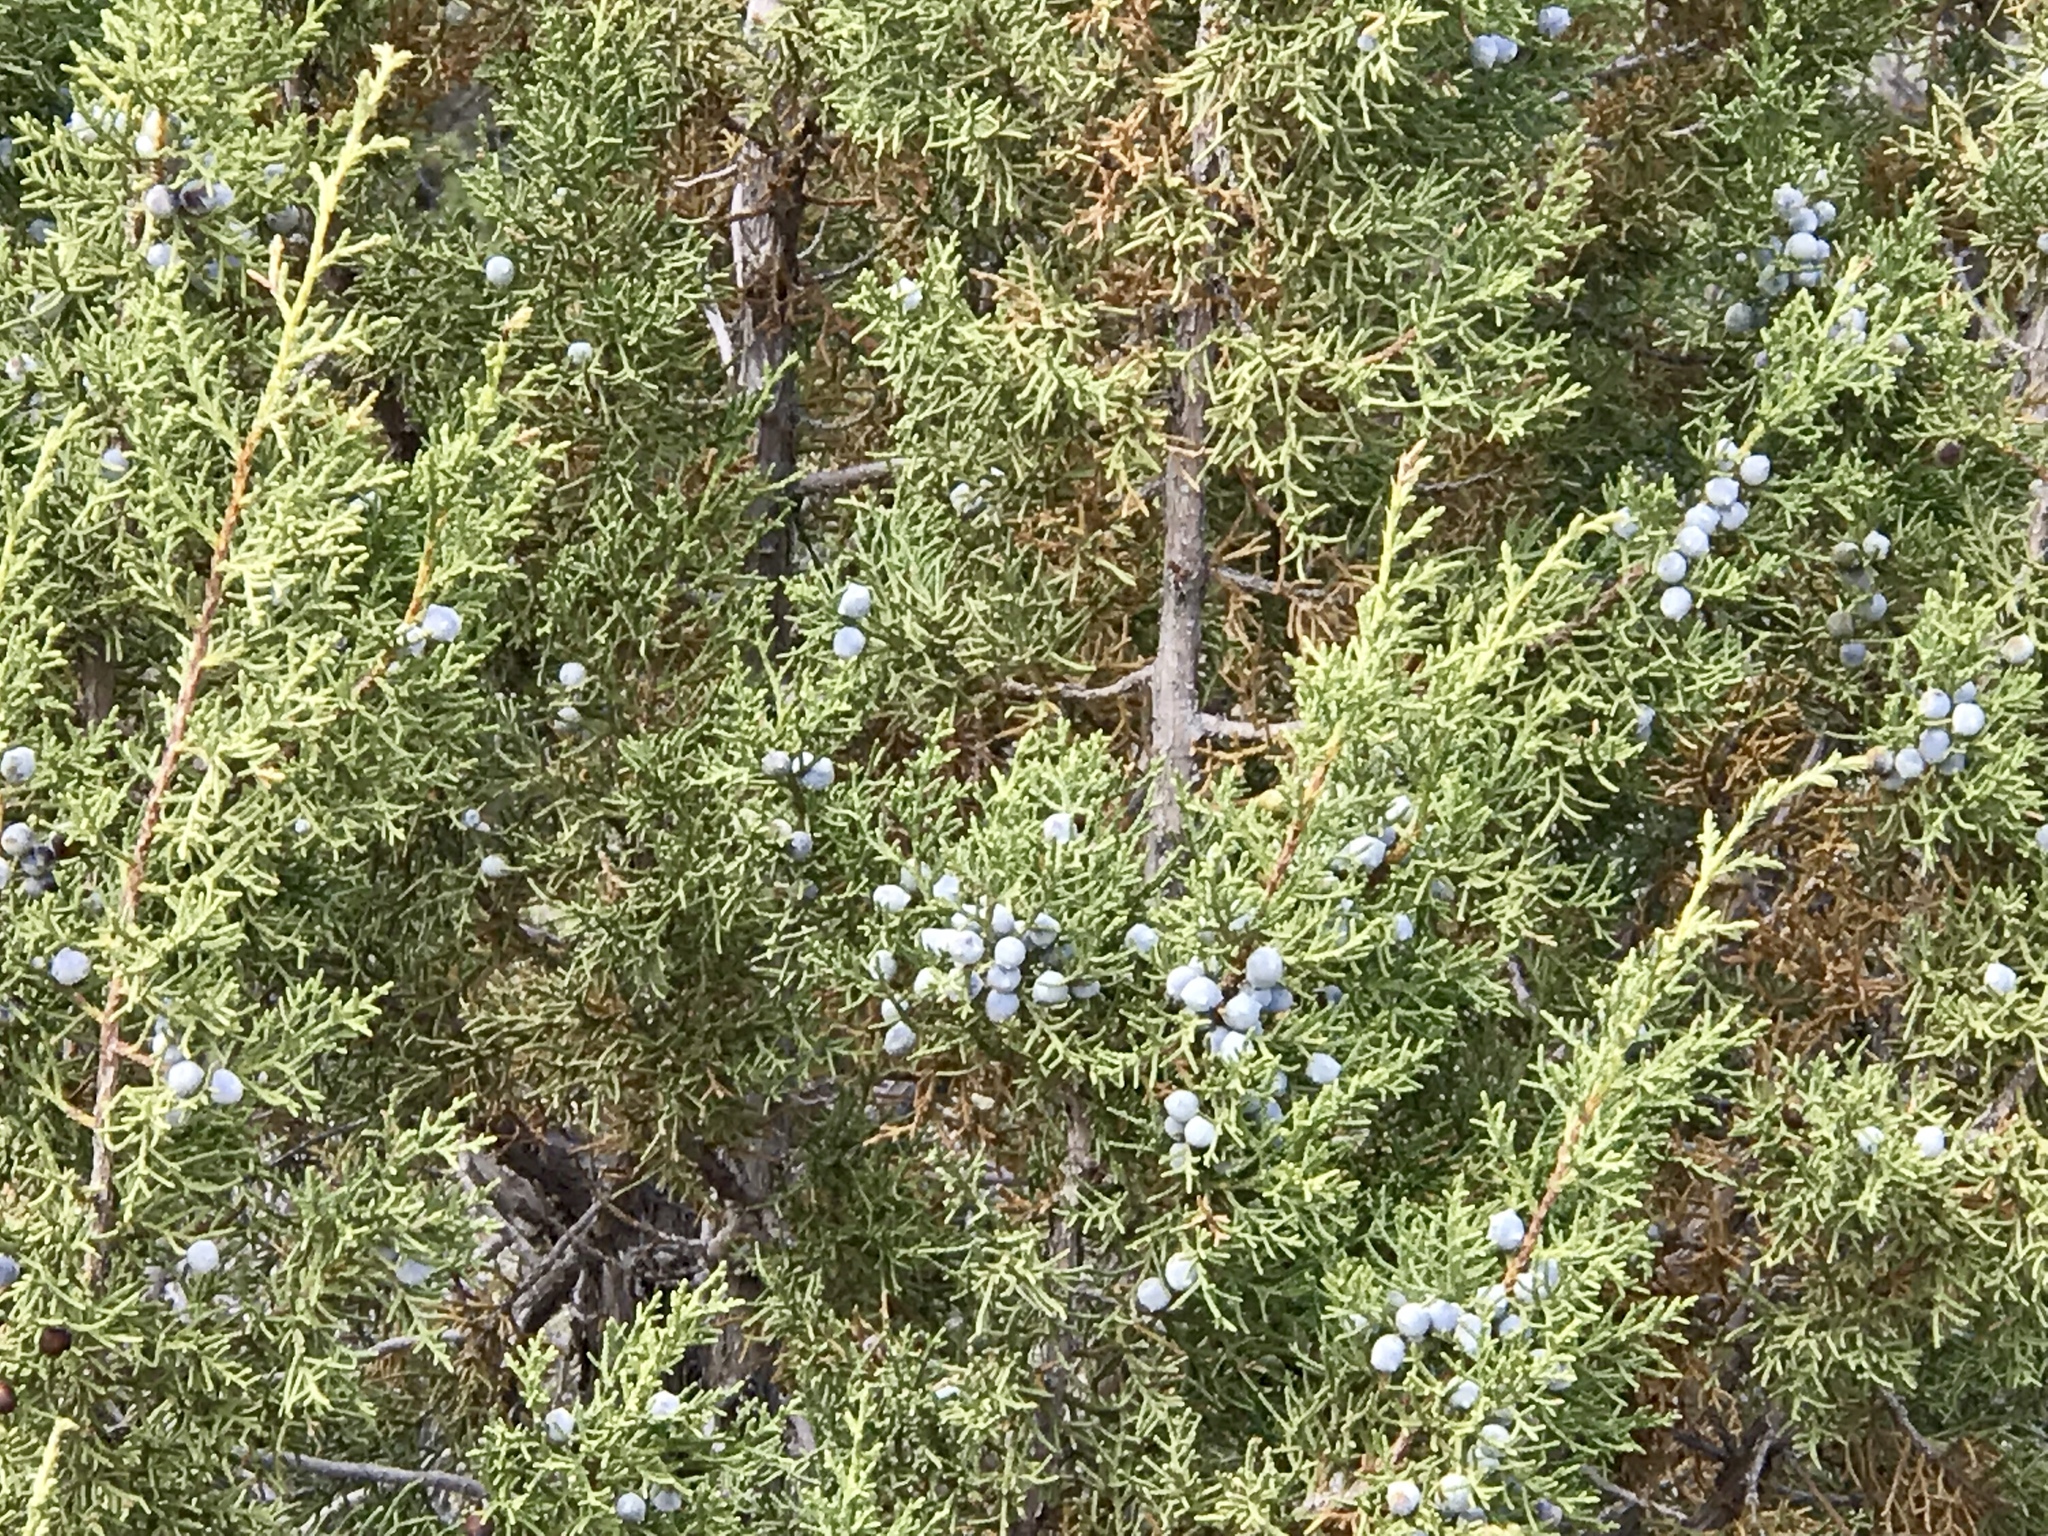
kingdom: Plantae
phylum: Tracheophyta
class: Pinopsida
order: Pinales
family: Cupressaceae
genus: Juniperus
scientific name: Juniperus osteosperma
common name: Utah juniper
